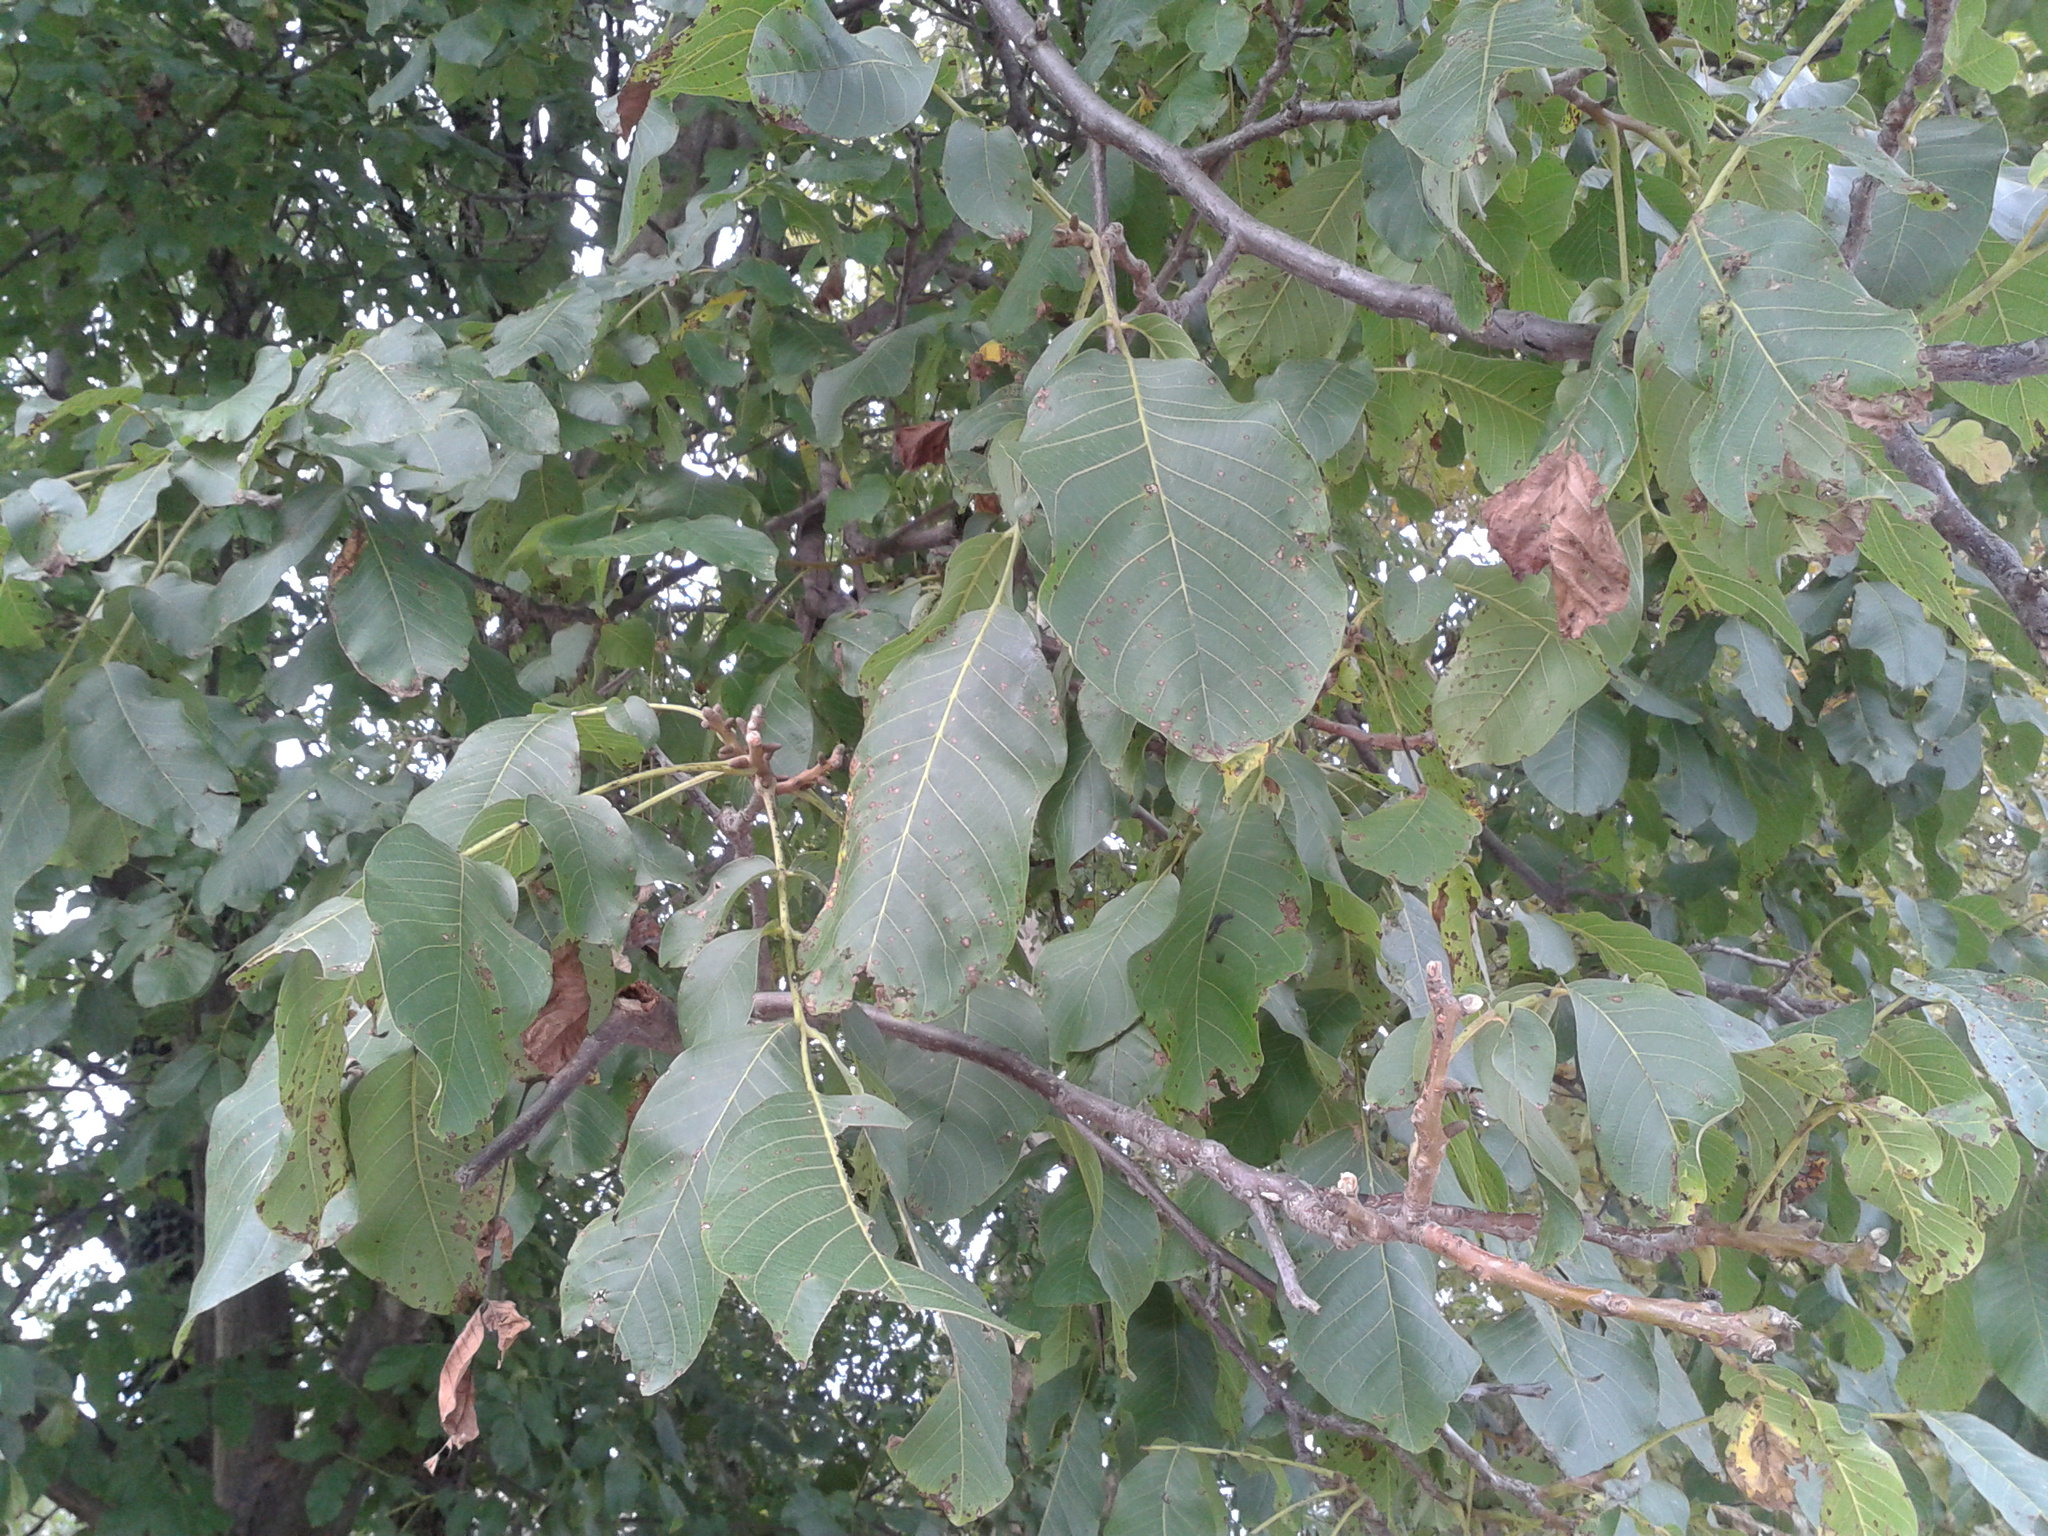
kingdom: Plantae
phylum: Tracheophyta
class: Magnoliopsida
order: Fagales
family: Juglandaceae
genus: Juglans
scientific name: Juglans regia
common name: Walnut
